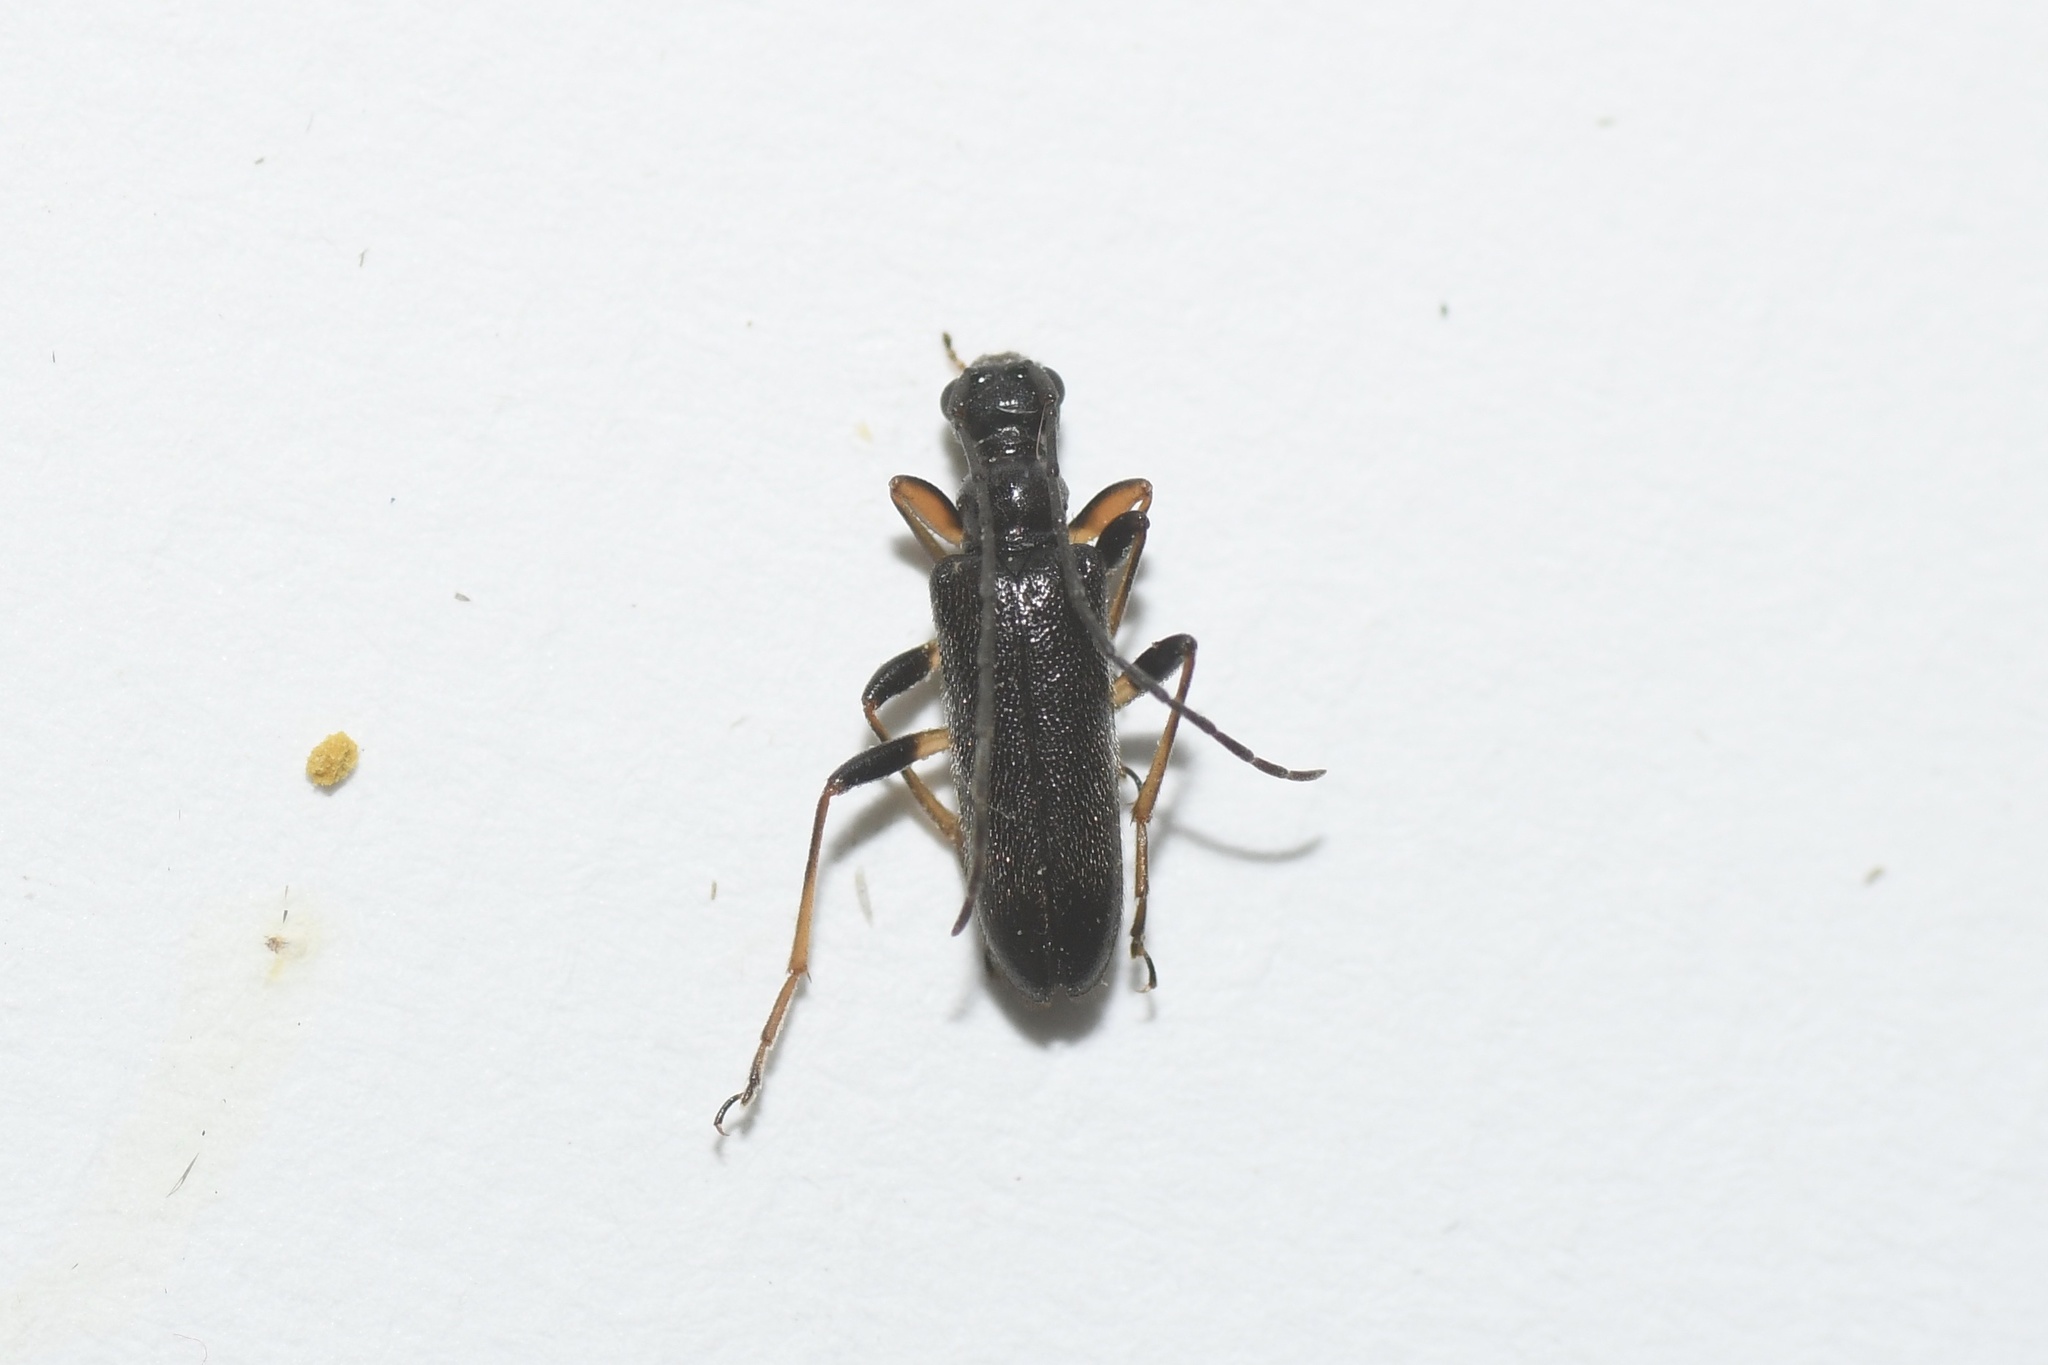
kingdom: Animalia
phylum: Arthropoda
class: Insecta
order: Coleoptera
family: Cerambycidae
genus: Pidonia
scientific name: Pidonia ruficollis
